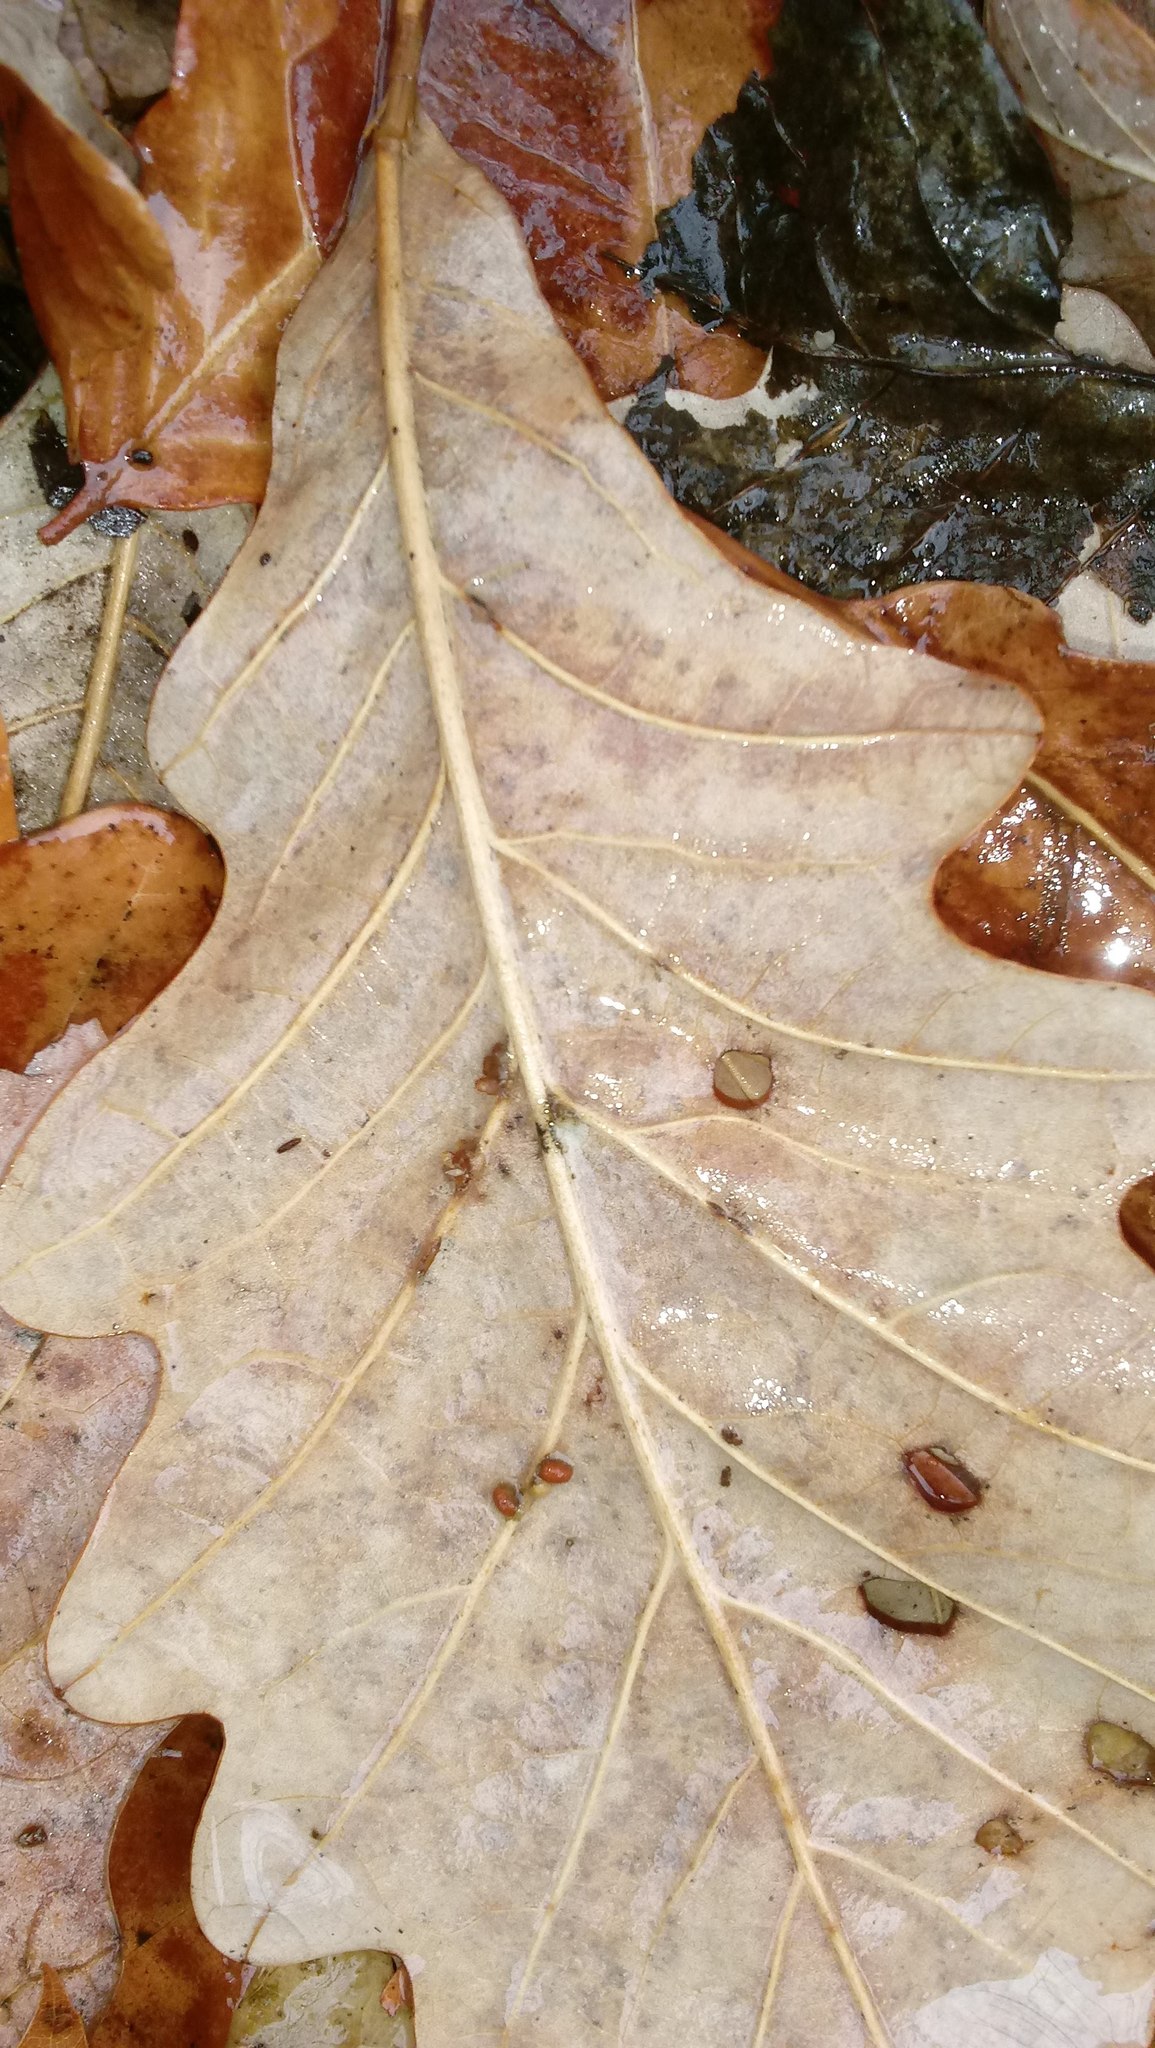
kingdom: Animalia
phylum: Arthropoda
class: Insecta
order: Hymenoptera
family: Cynipidae
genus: Andricus
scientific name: Andricus Druon ignotum
